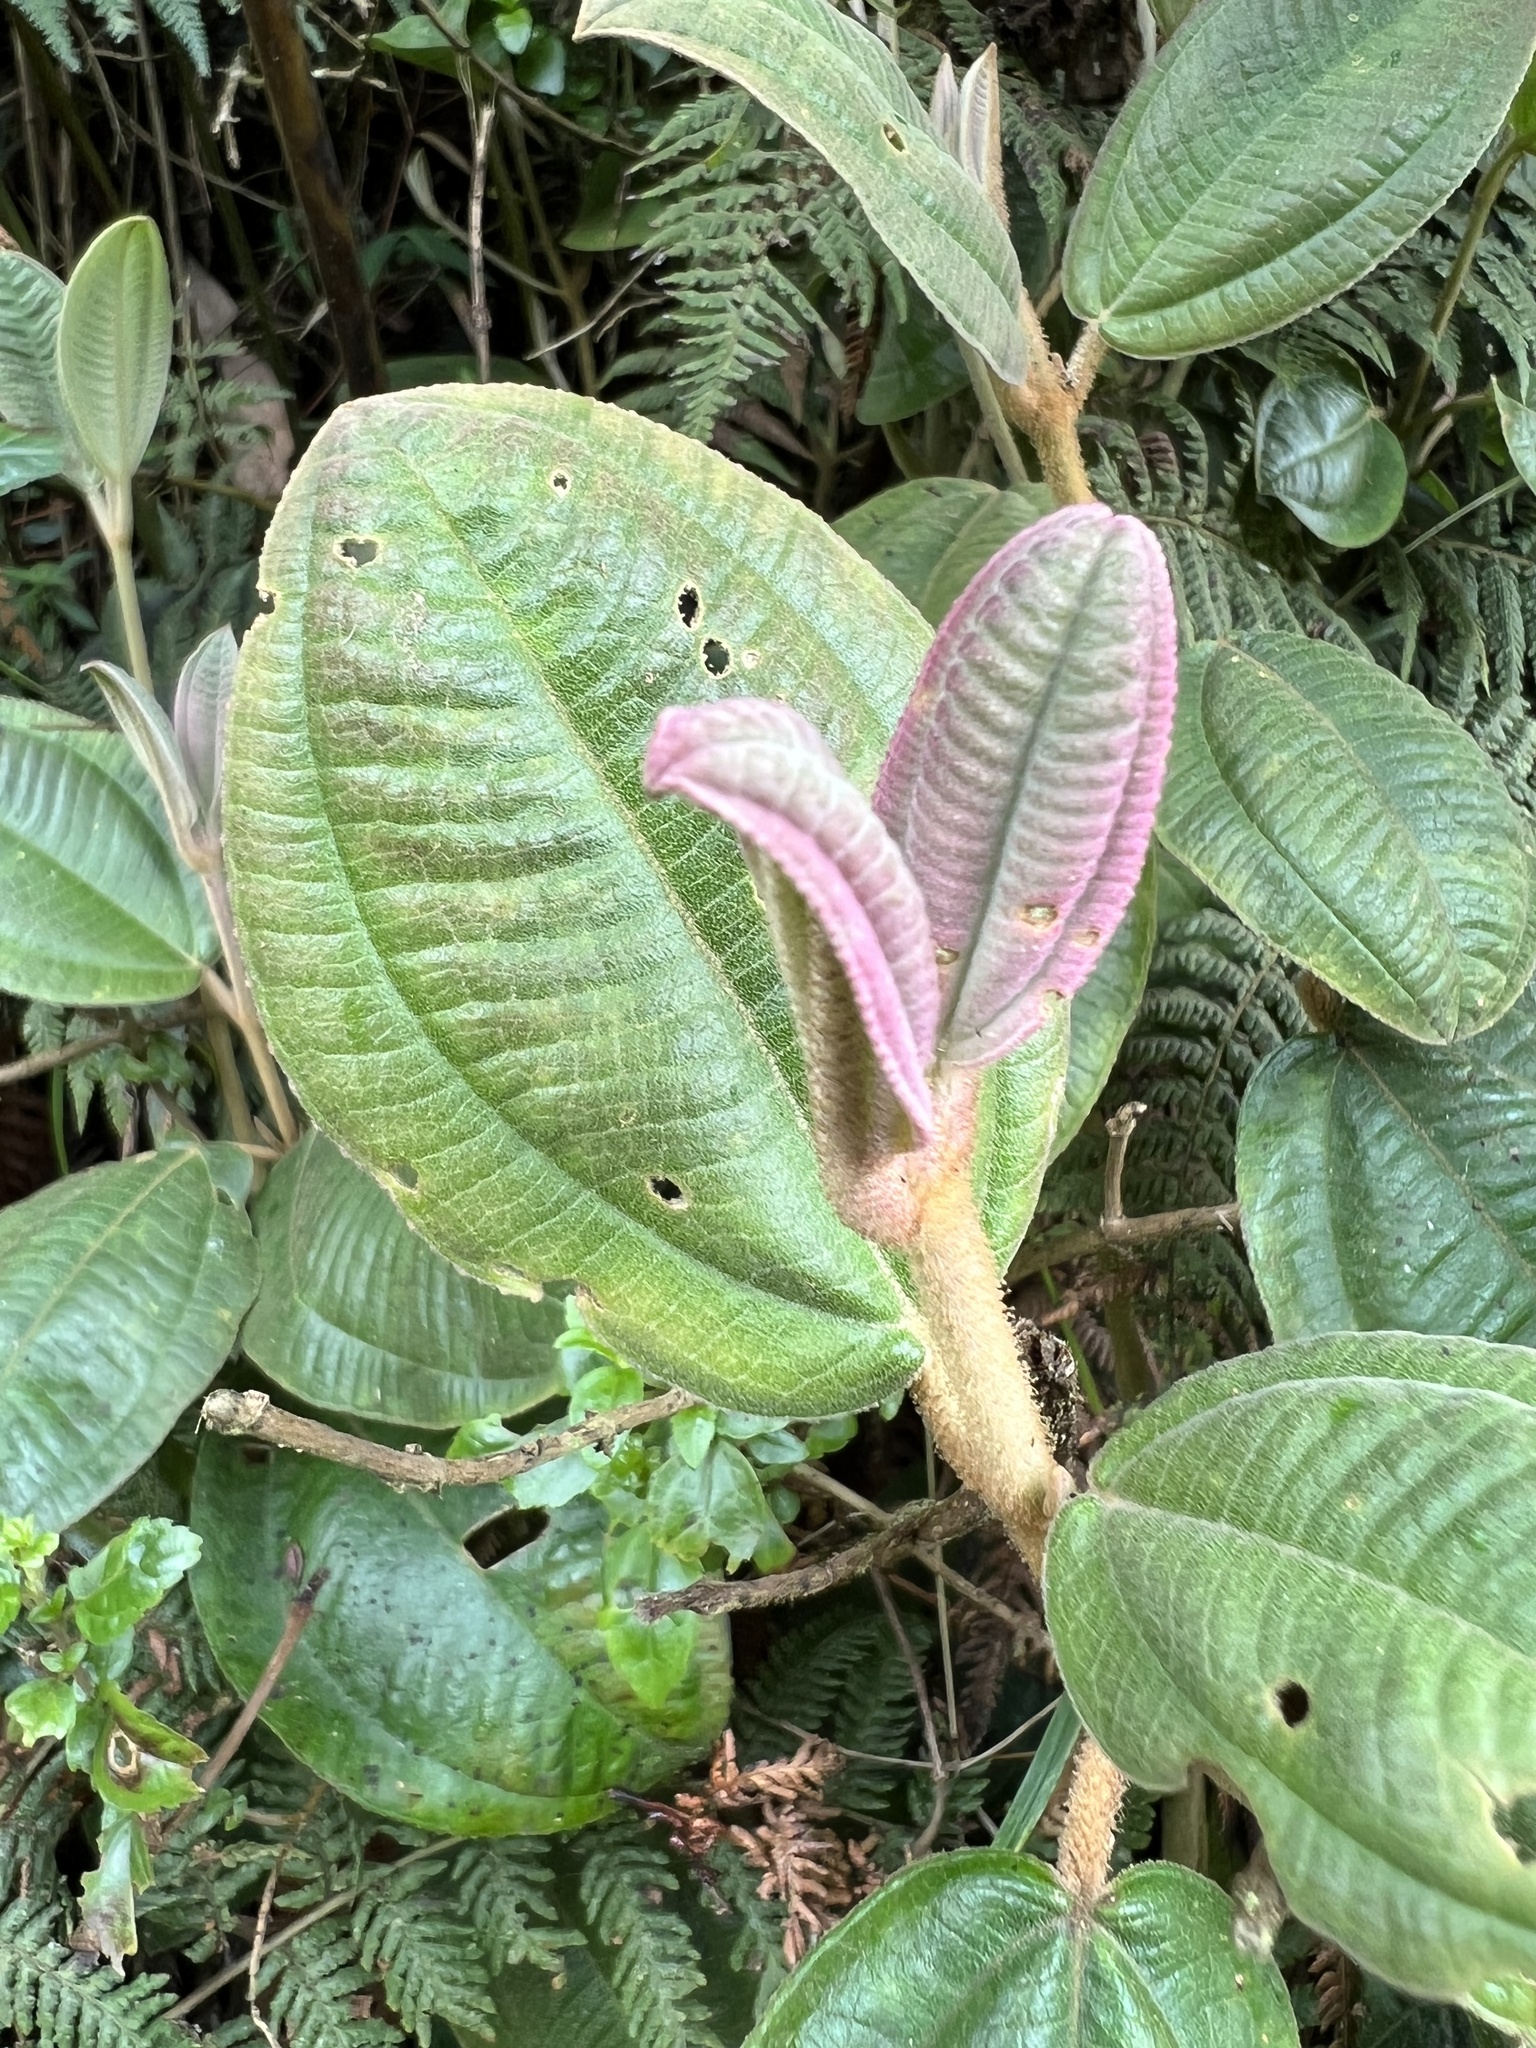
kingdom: Plantae
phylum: Tracheophyta
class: Magnoliopsida
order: Myrtales
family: Melastomataceae
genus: Miconia
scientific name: Miconia cataractae
